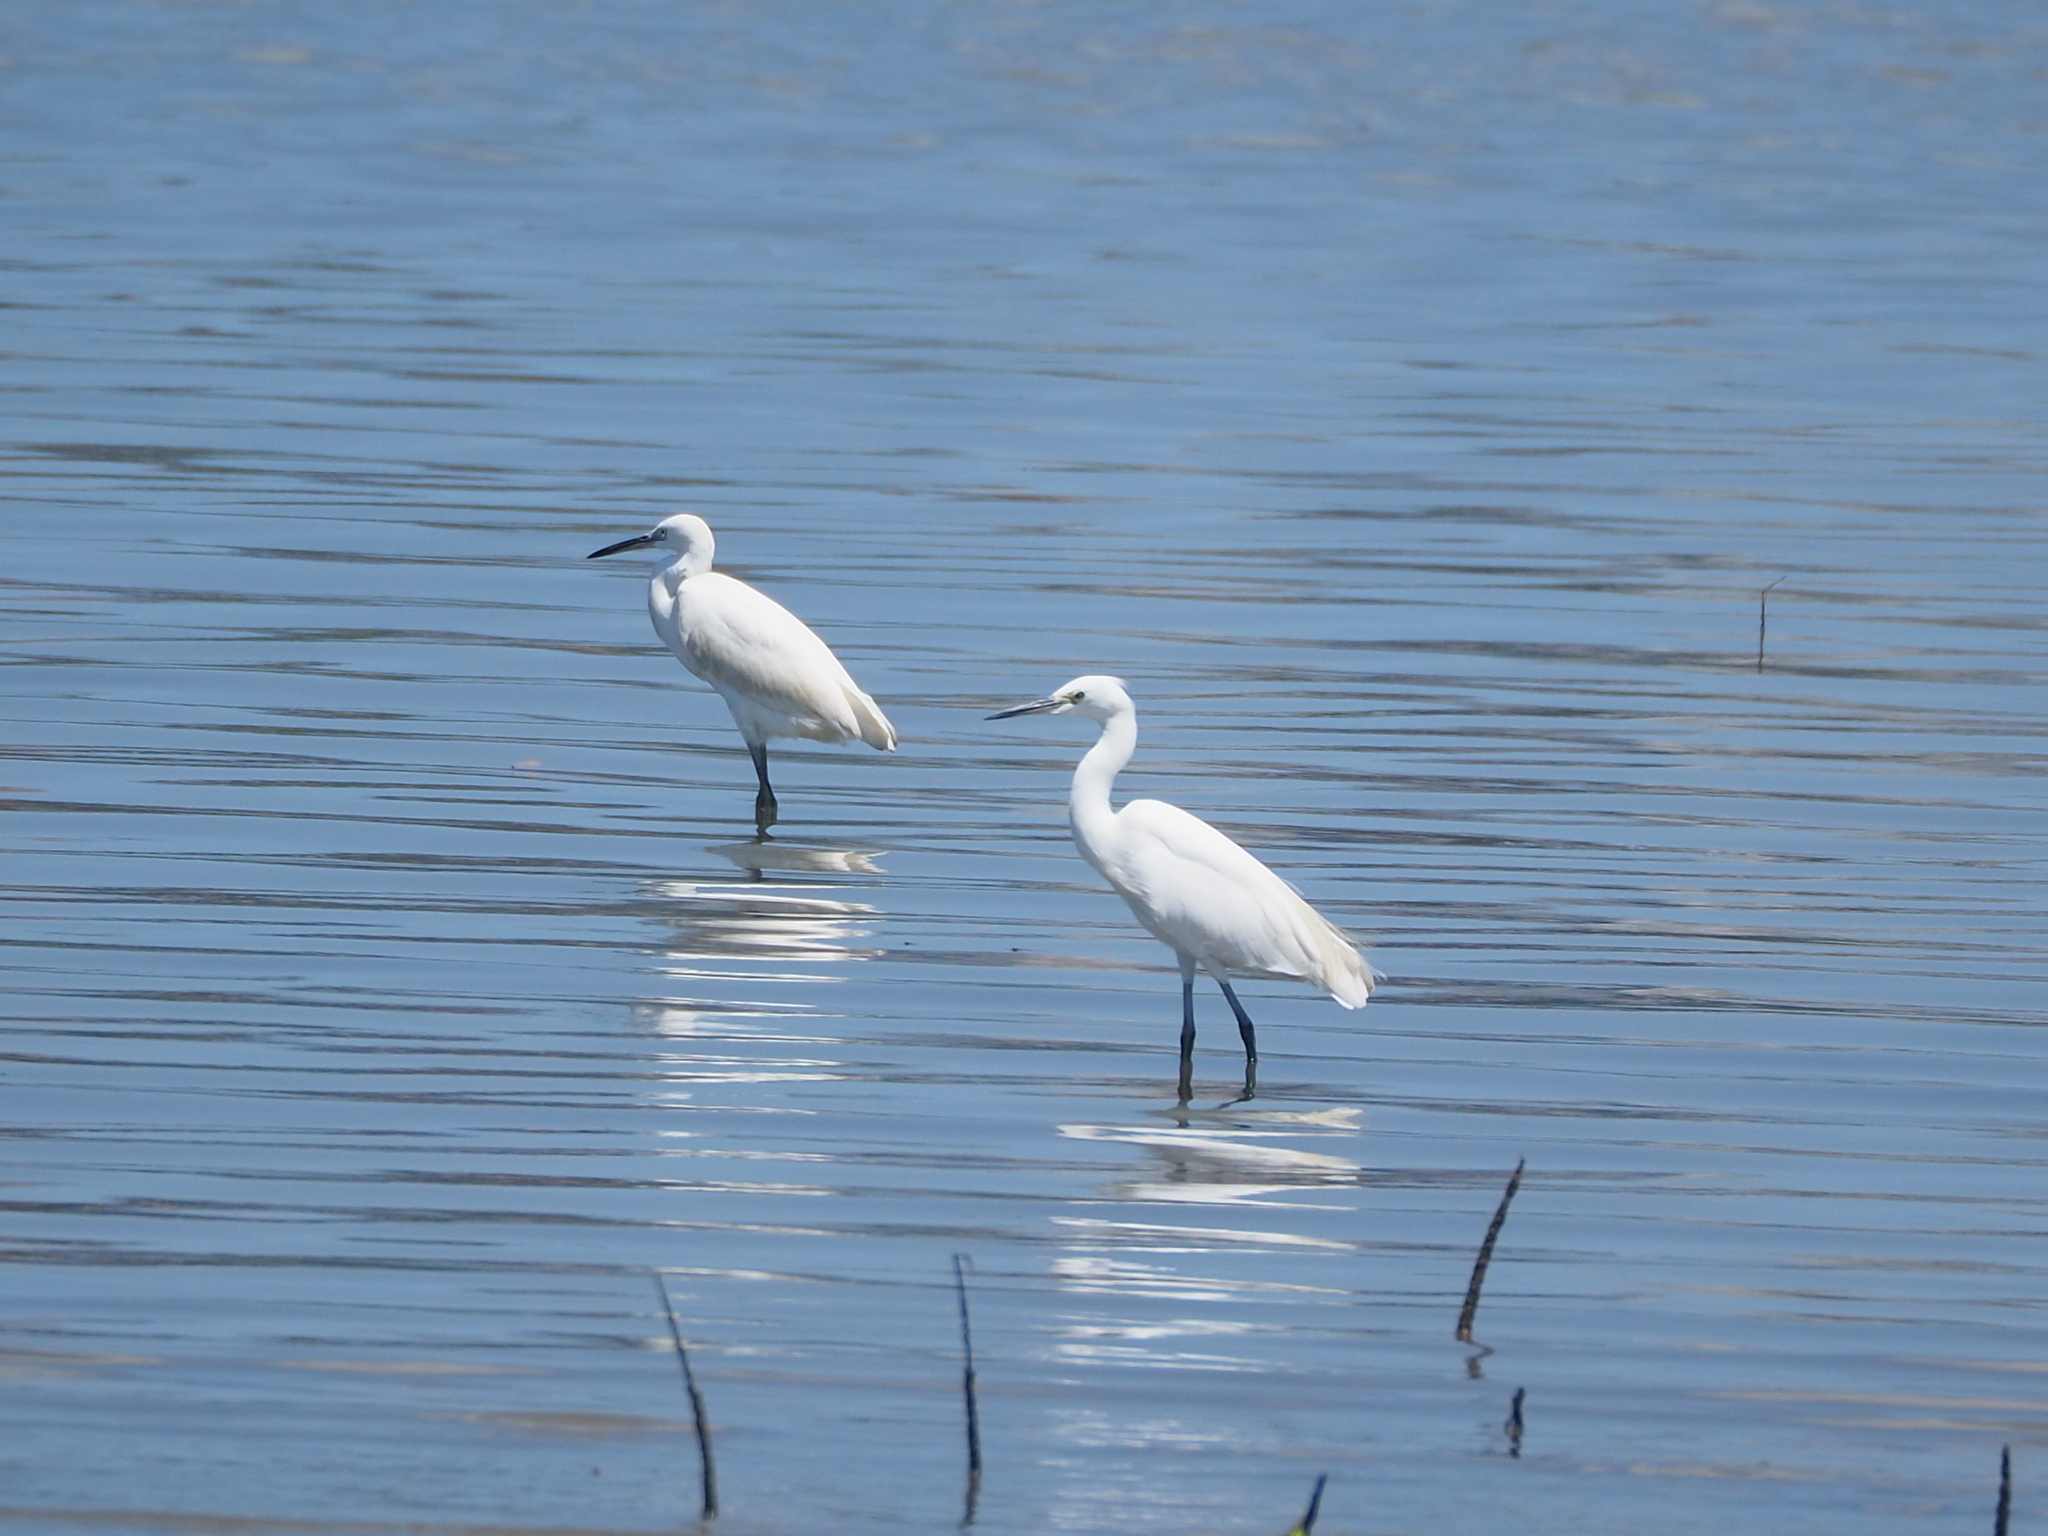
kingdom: Animalia
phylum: Chordata
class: Aves
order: Pelecaniformes
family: Ardeidae
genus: Egretta
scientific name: Egretta garzetta
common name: Little egret
